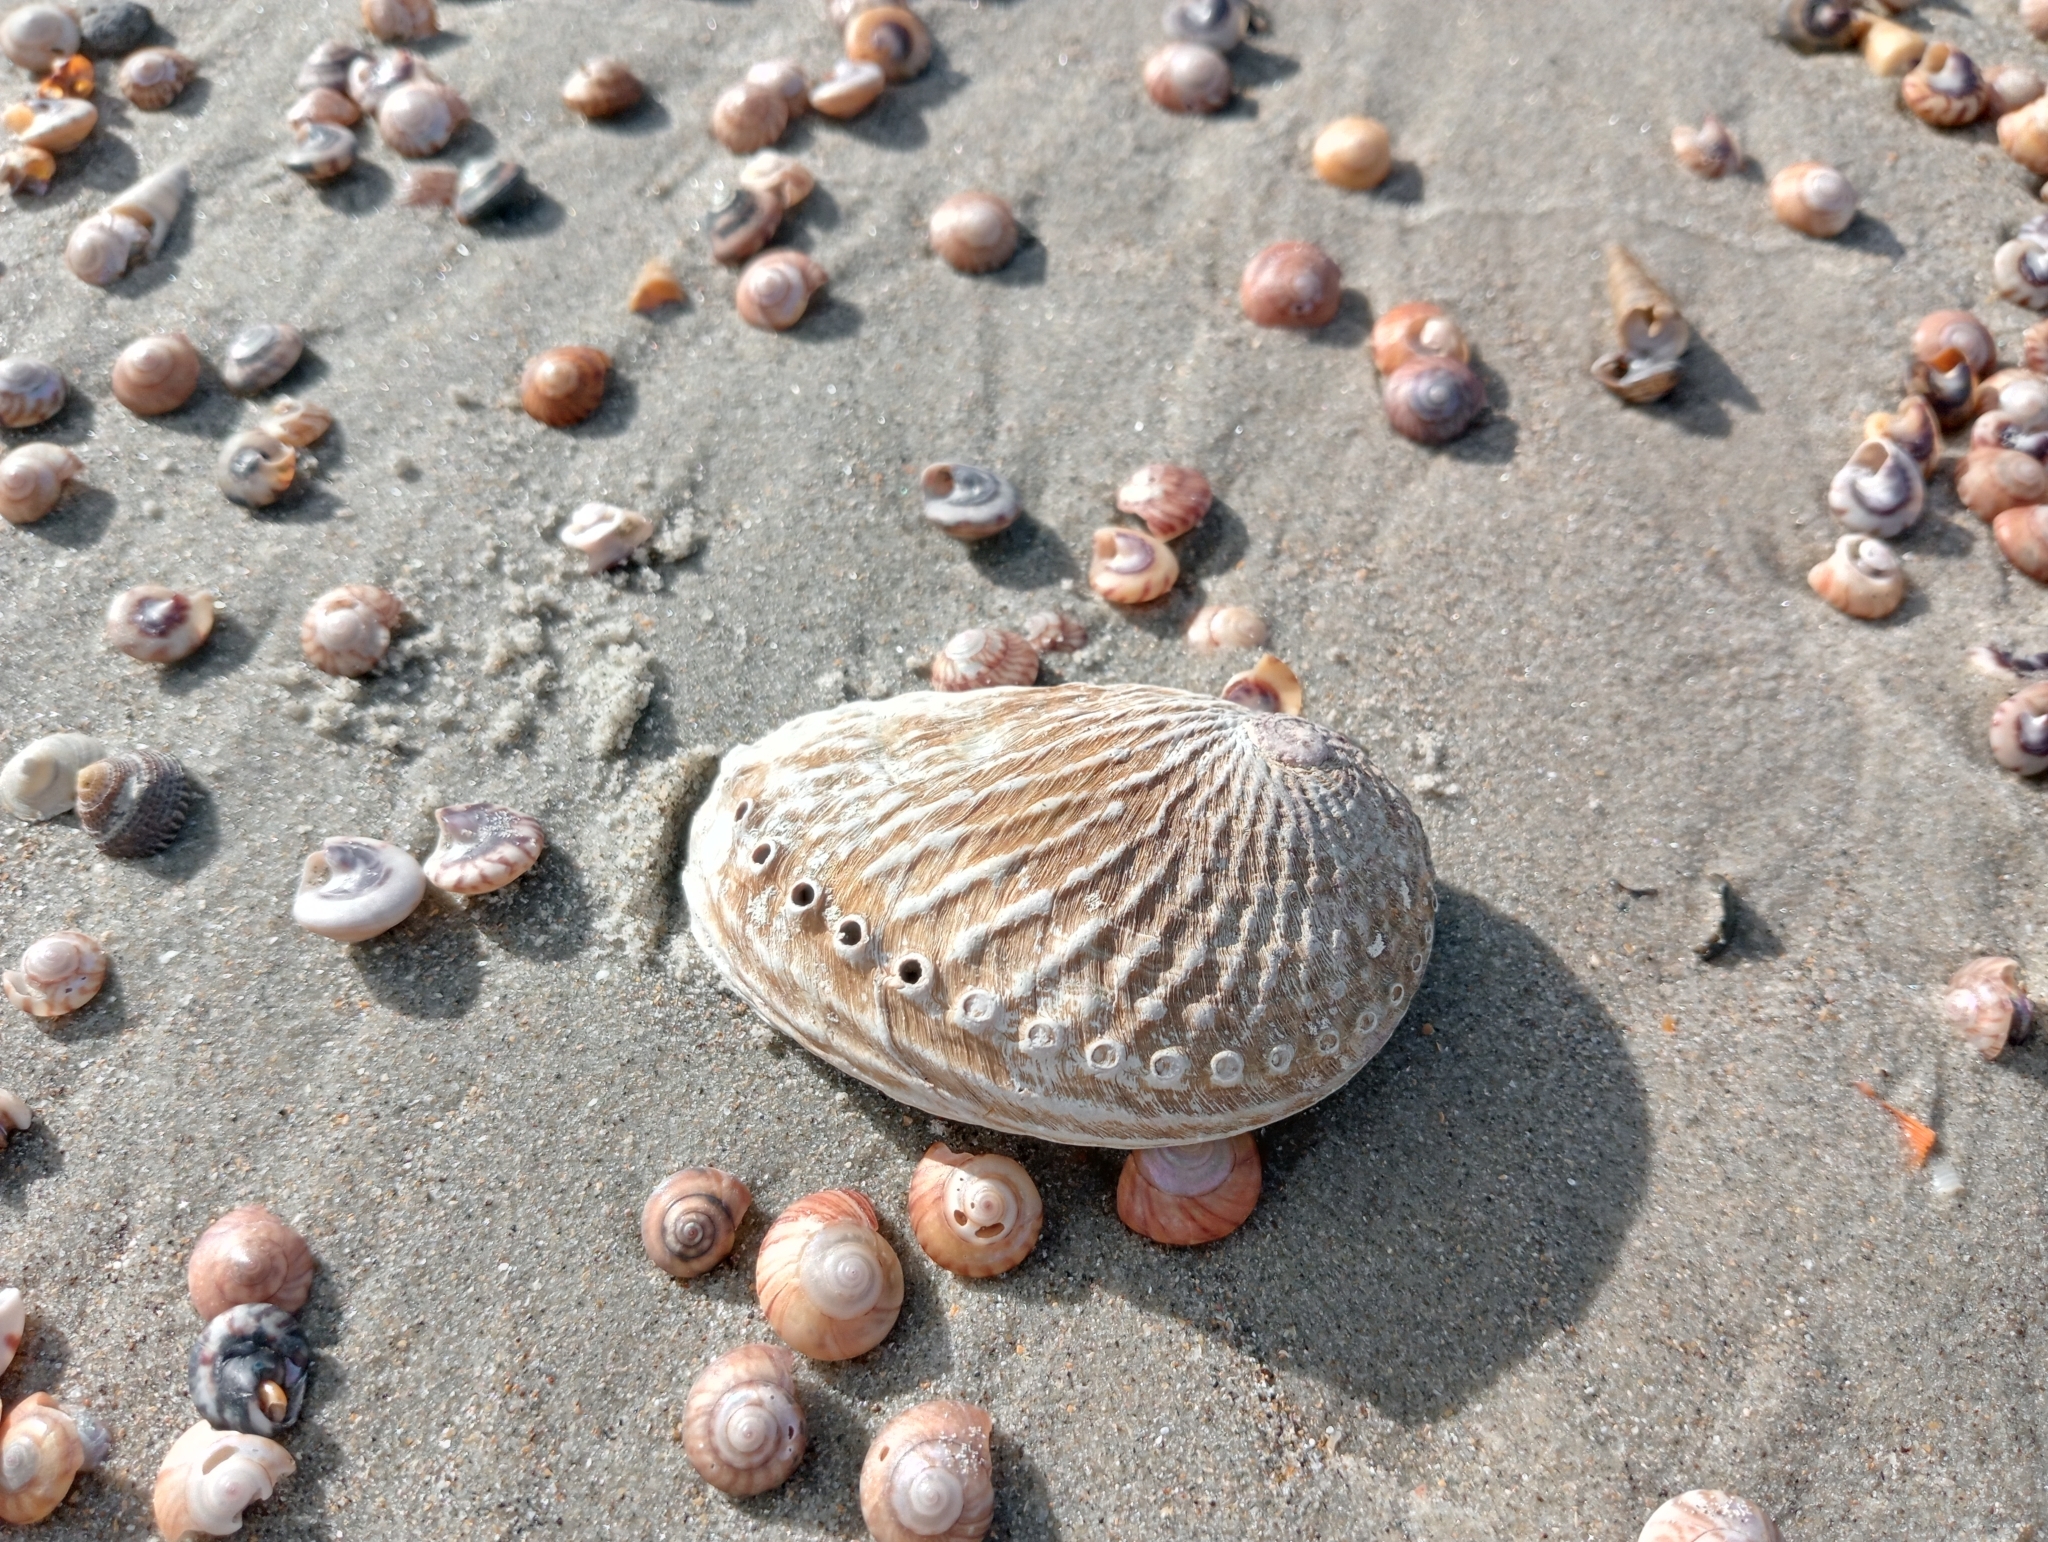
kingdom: Animalia
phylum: Mollusca
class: Gastropoda
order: Lepetellida
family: Haliotidae
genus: Haliotis
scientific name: Haliotis australis
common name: Silver abalone
